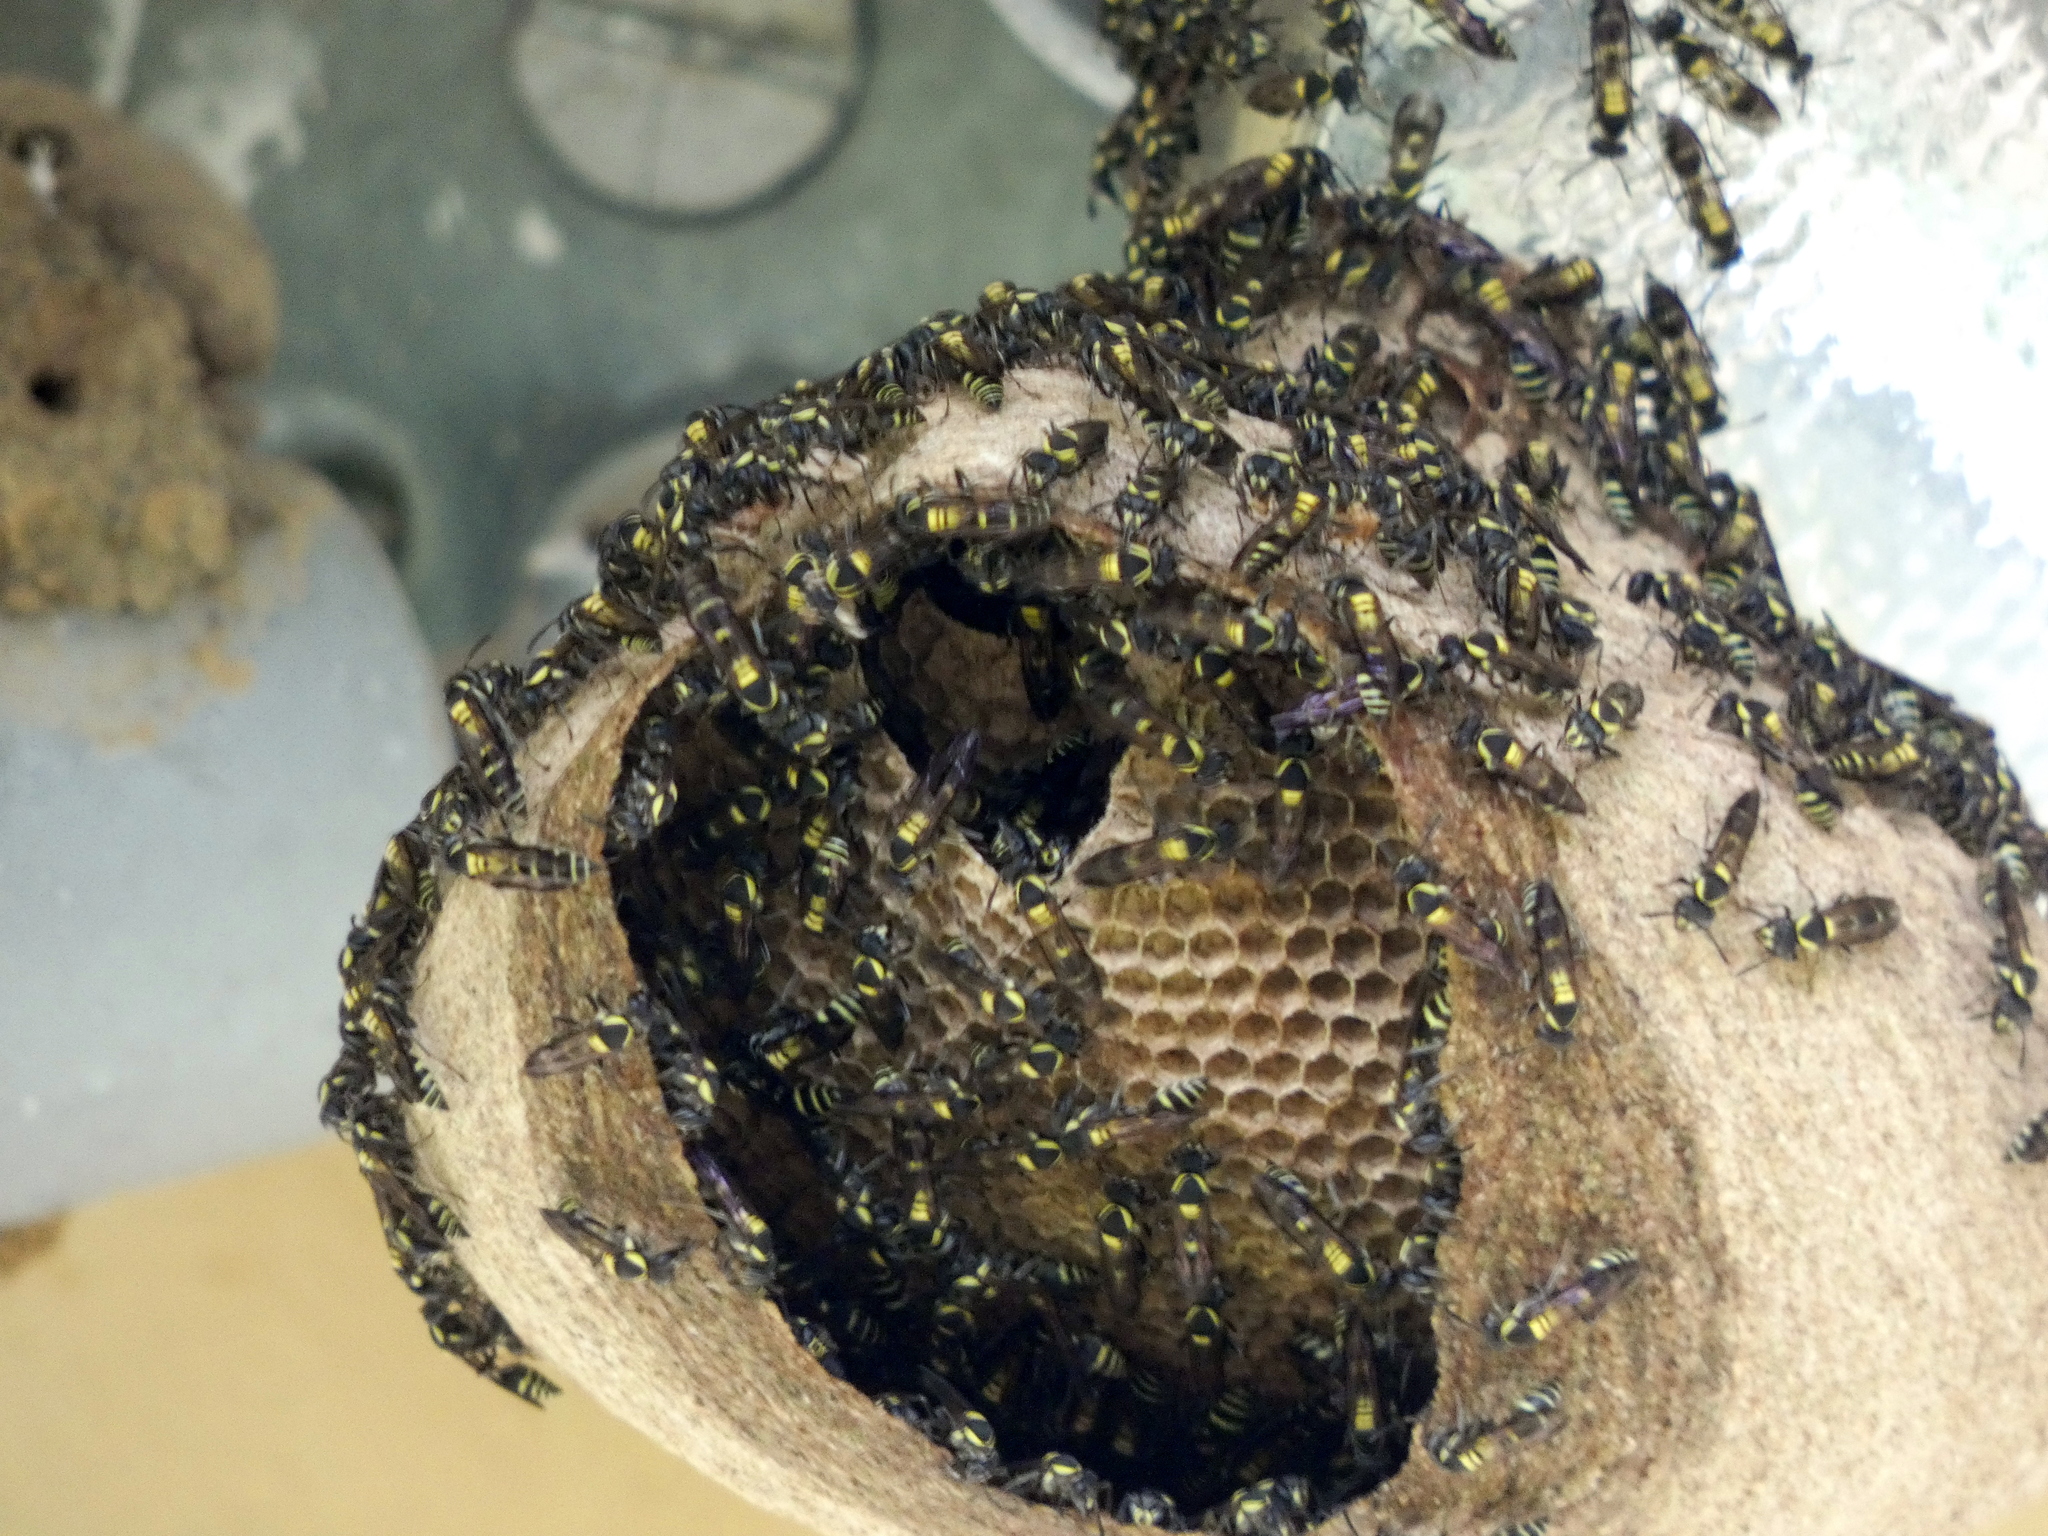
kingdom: Animalia
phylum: Arthropoda
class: Insecta
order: Hymenoptera
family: Eumenidae
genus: Polybia
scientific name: Polybia occidentalis
